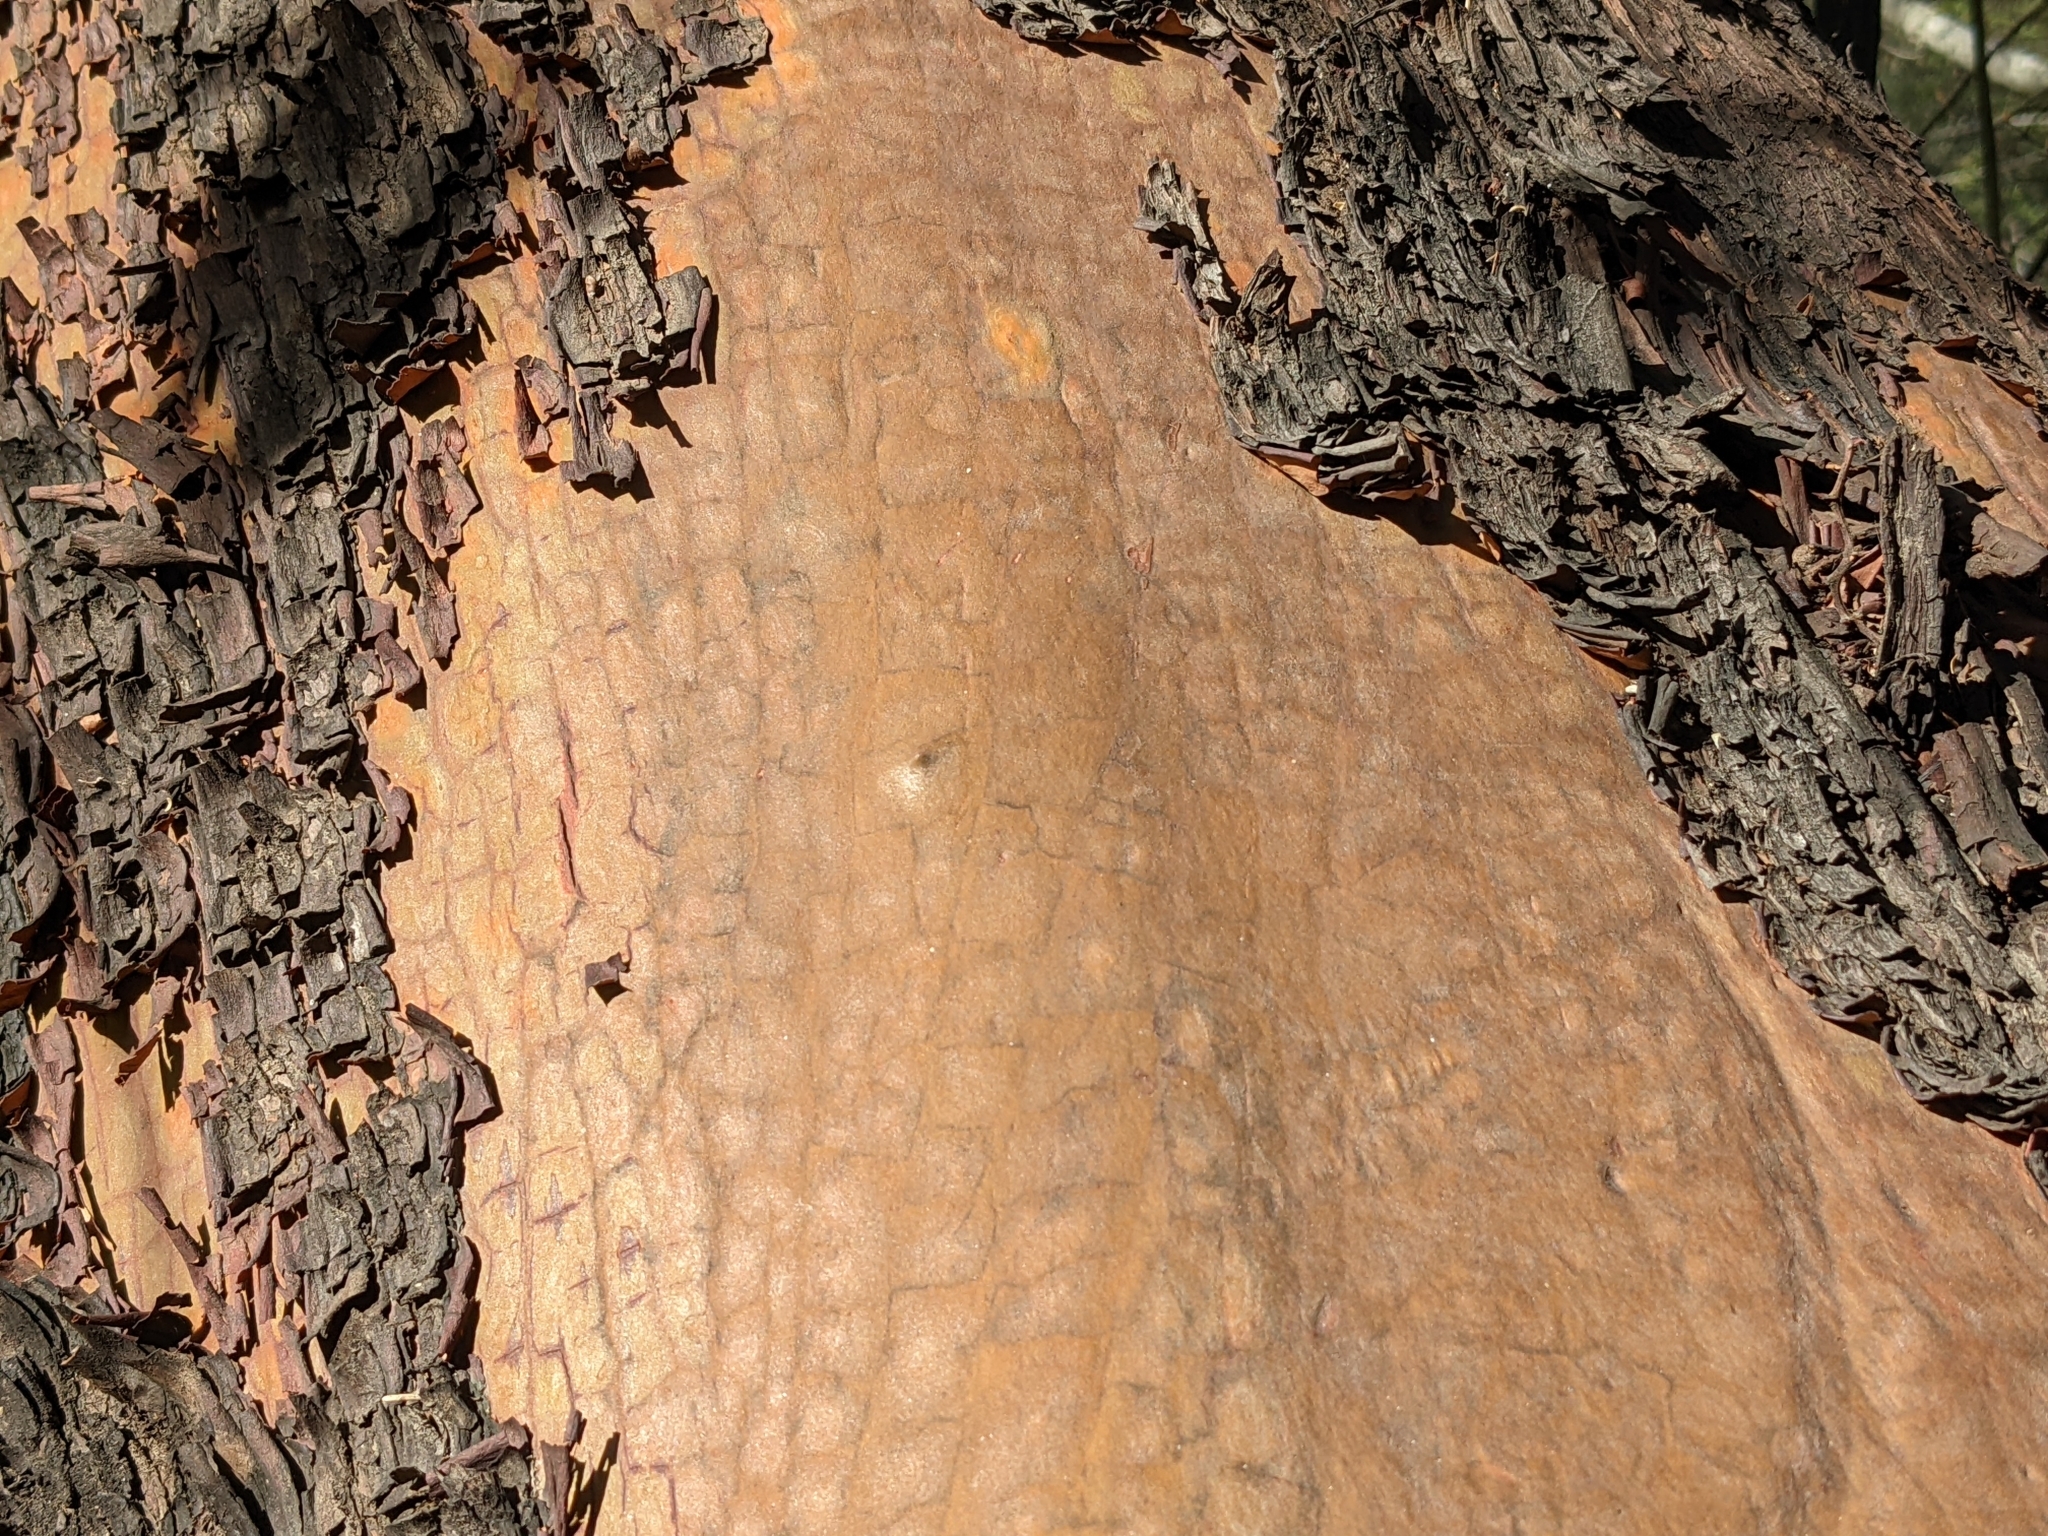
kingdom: Plantae
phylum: Tracheophyta
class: Magnoliopsida
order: Ericales
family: Ericaceae
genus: Arbutus
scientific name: Arbutus menziesii
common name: Pacific madrone
